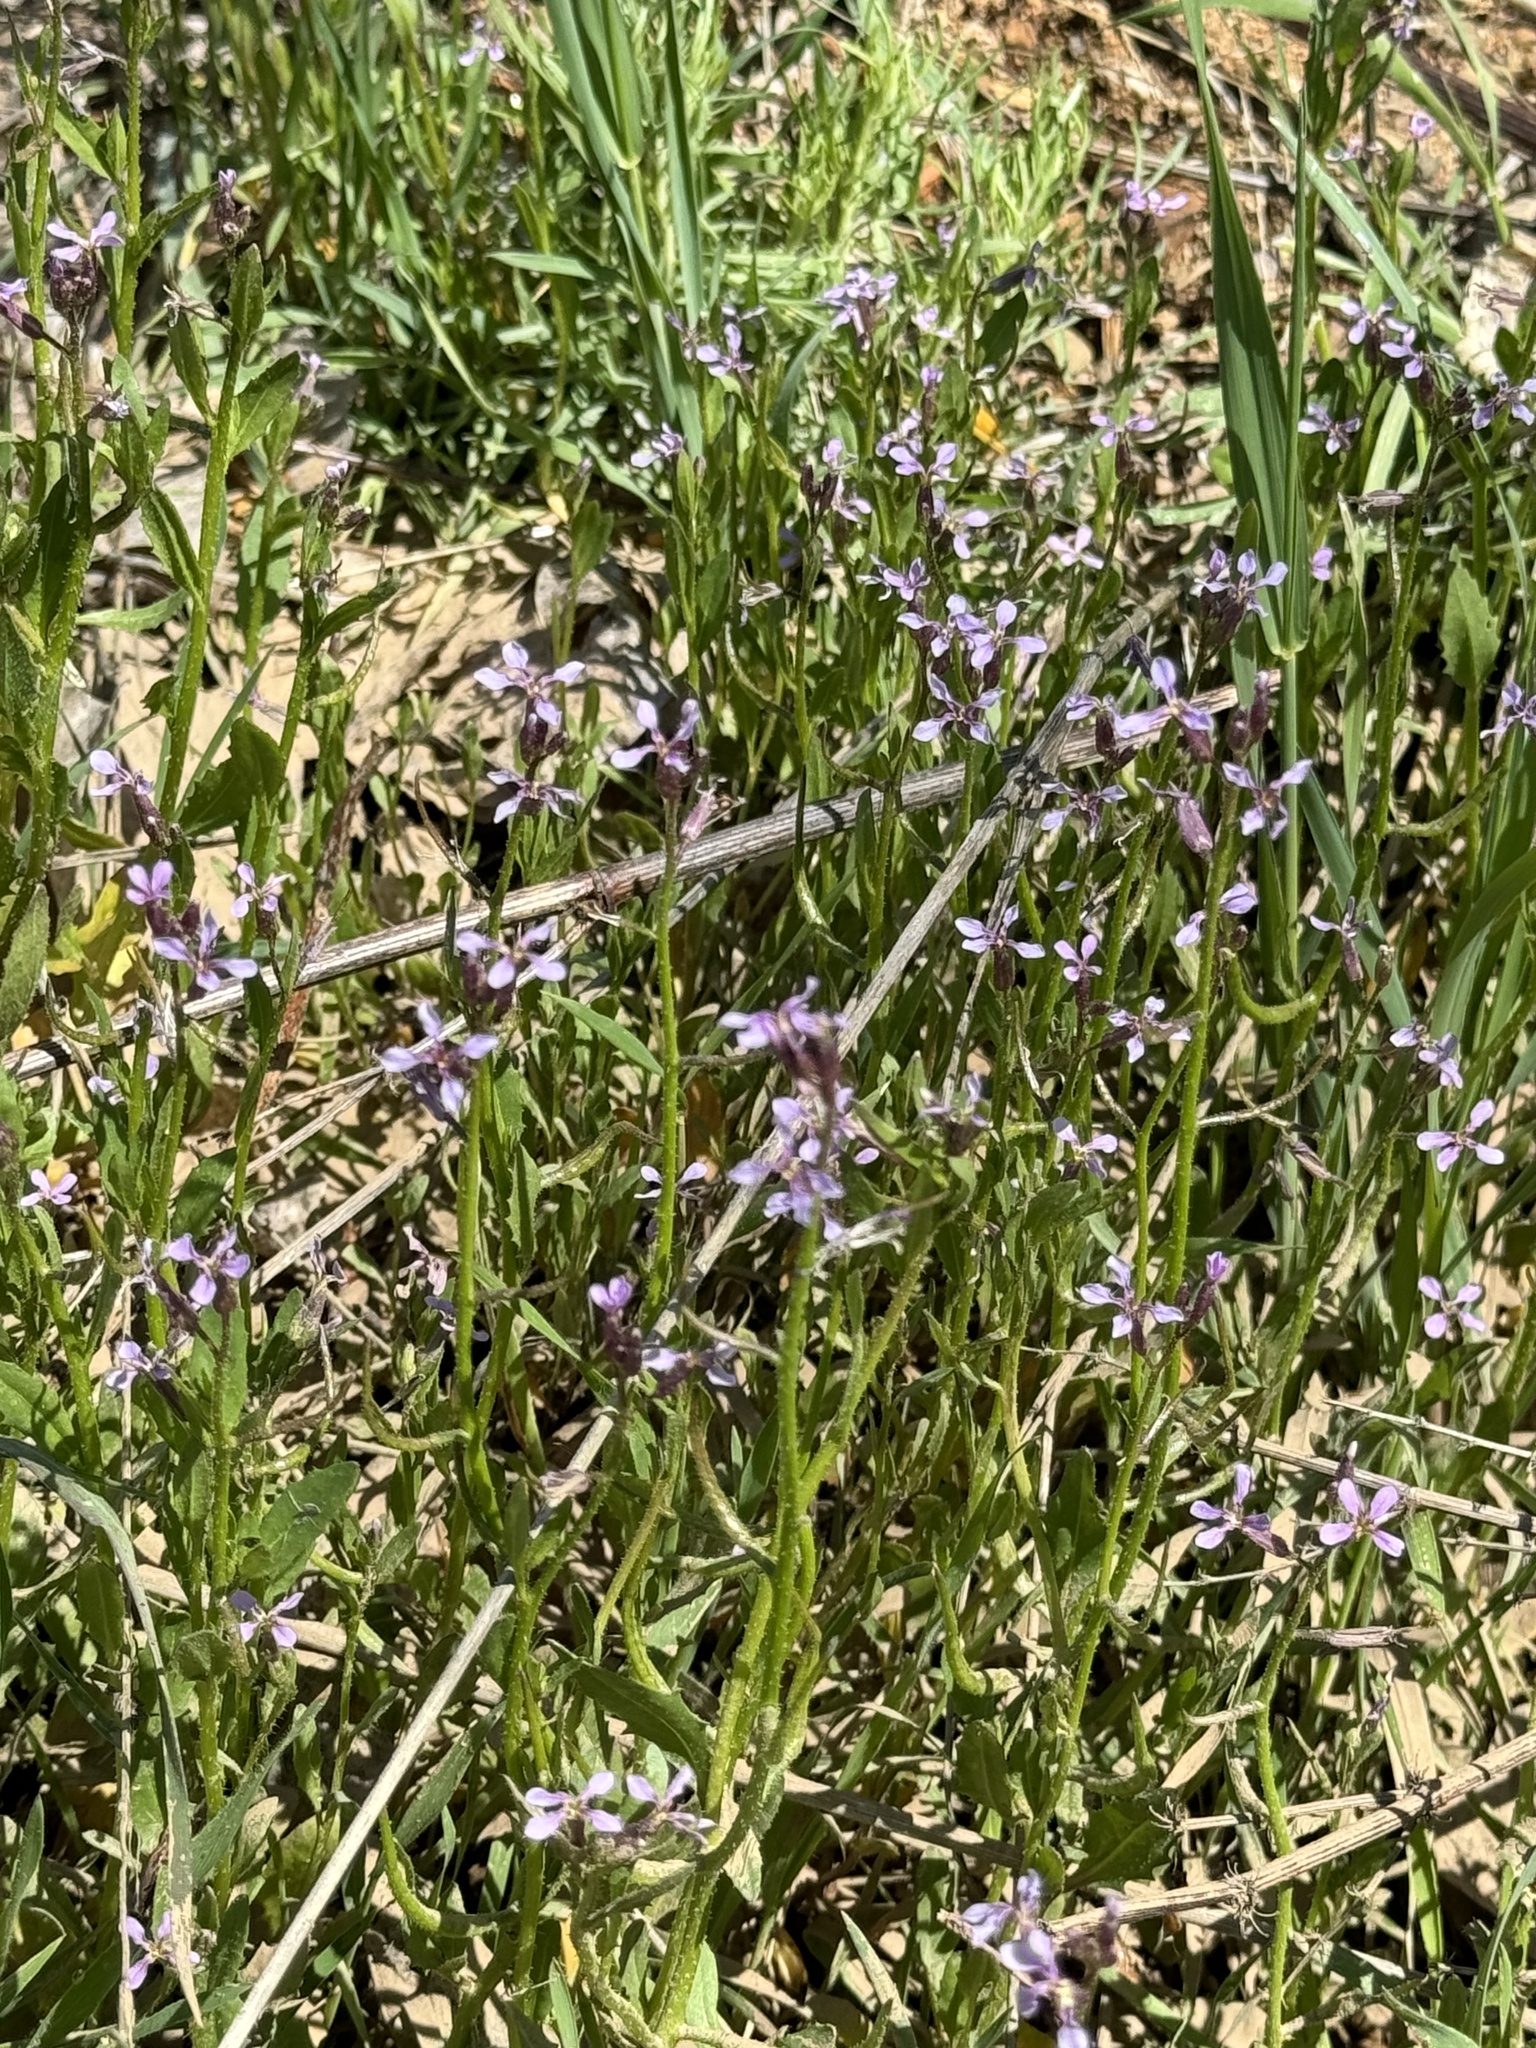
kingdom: Plantae
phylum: Tracheophyta
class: Magnoliopsida
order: Brassicales
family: Brassicaceae
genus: Chorispora
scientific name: Chorispora tenella
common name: Crossflower
